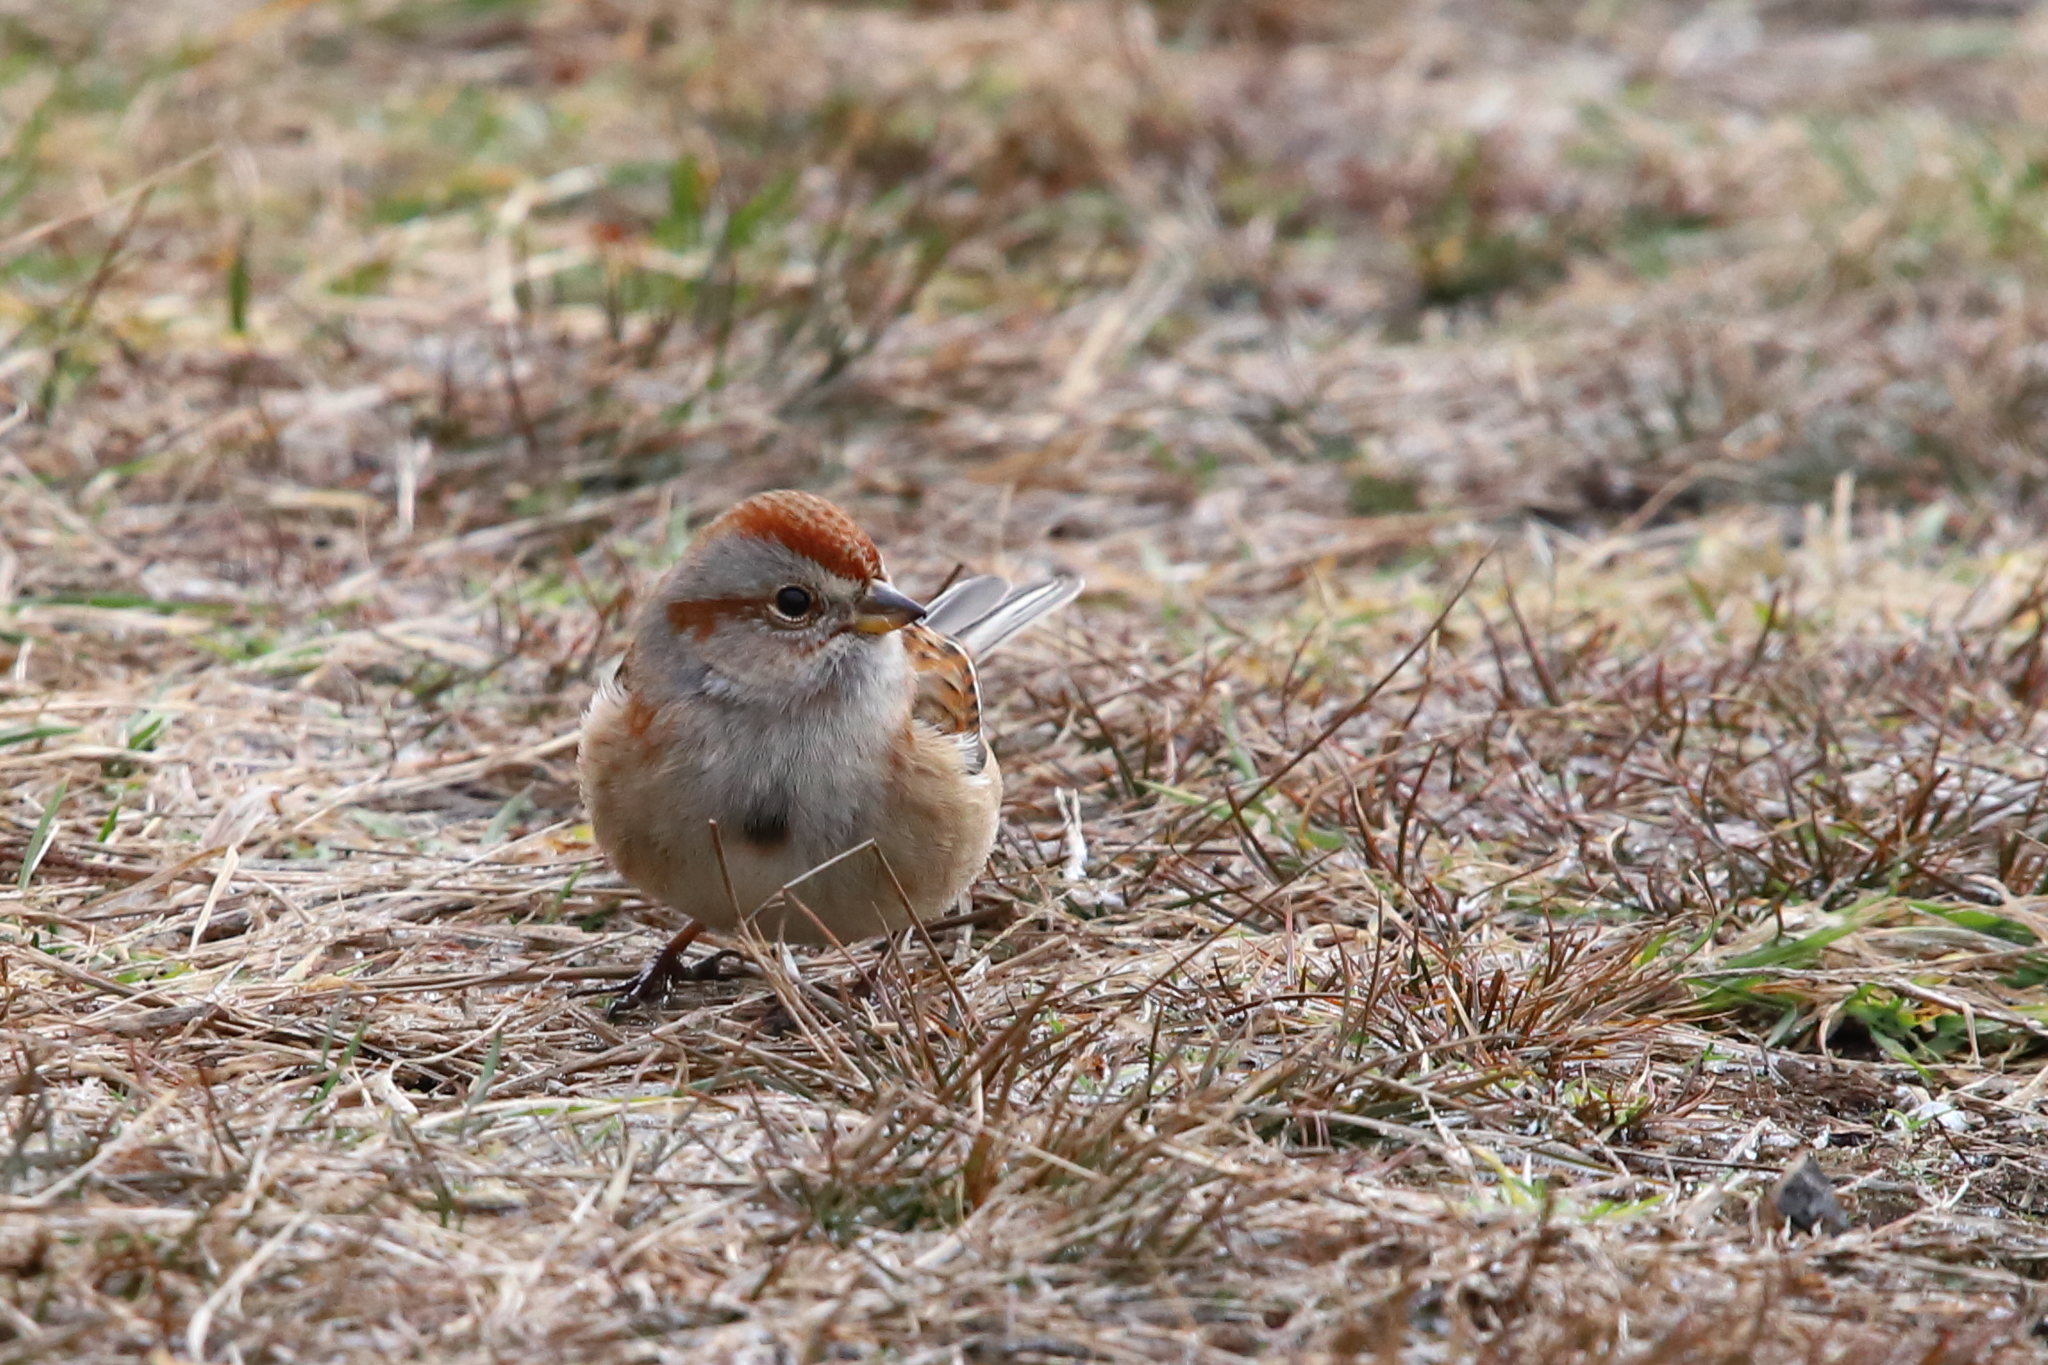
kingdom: Animalia
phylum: Chordata
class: Aves
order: Passeriformes
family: Passerellidae
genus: Spizelloides
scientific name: Spizelloides arborea
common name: American tree sparrow
